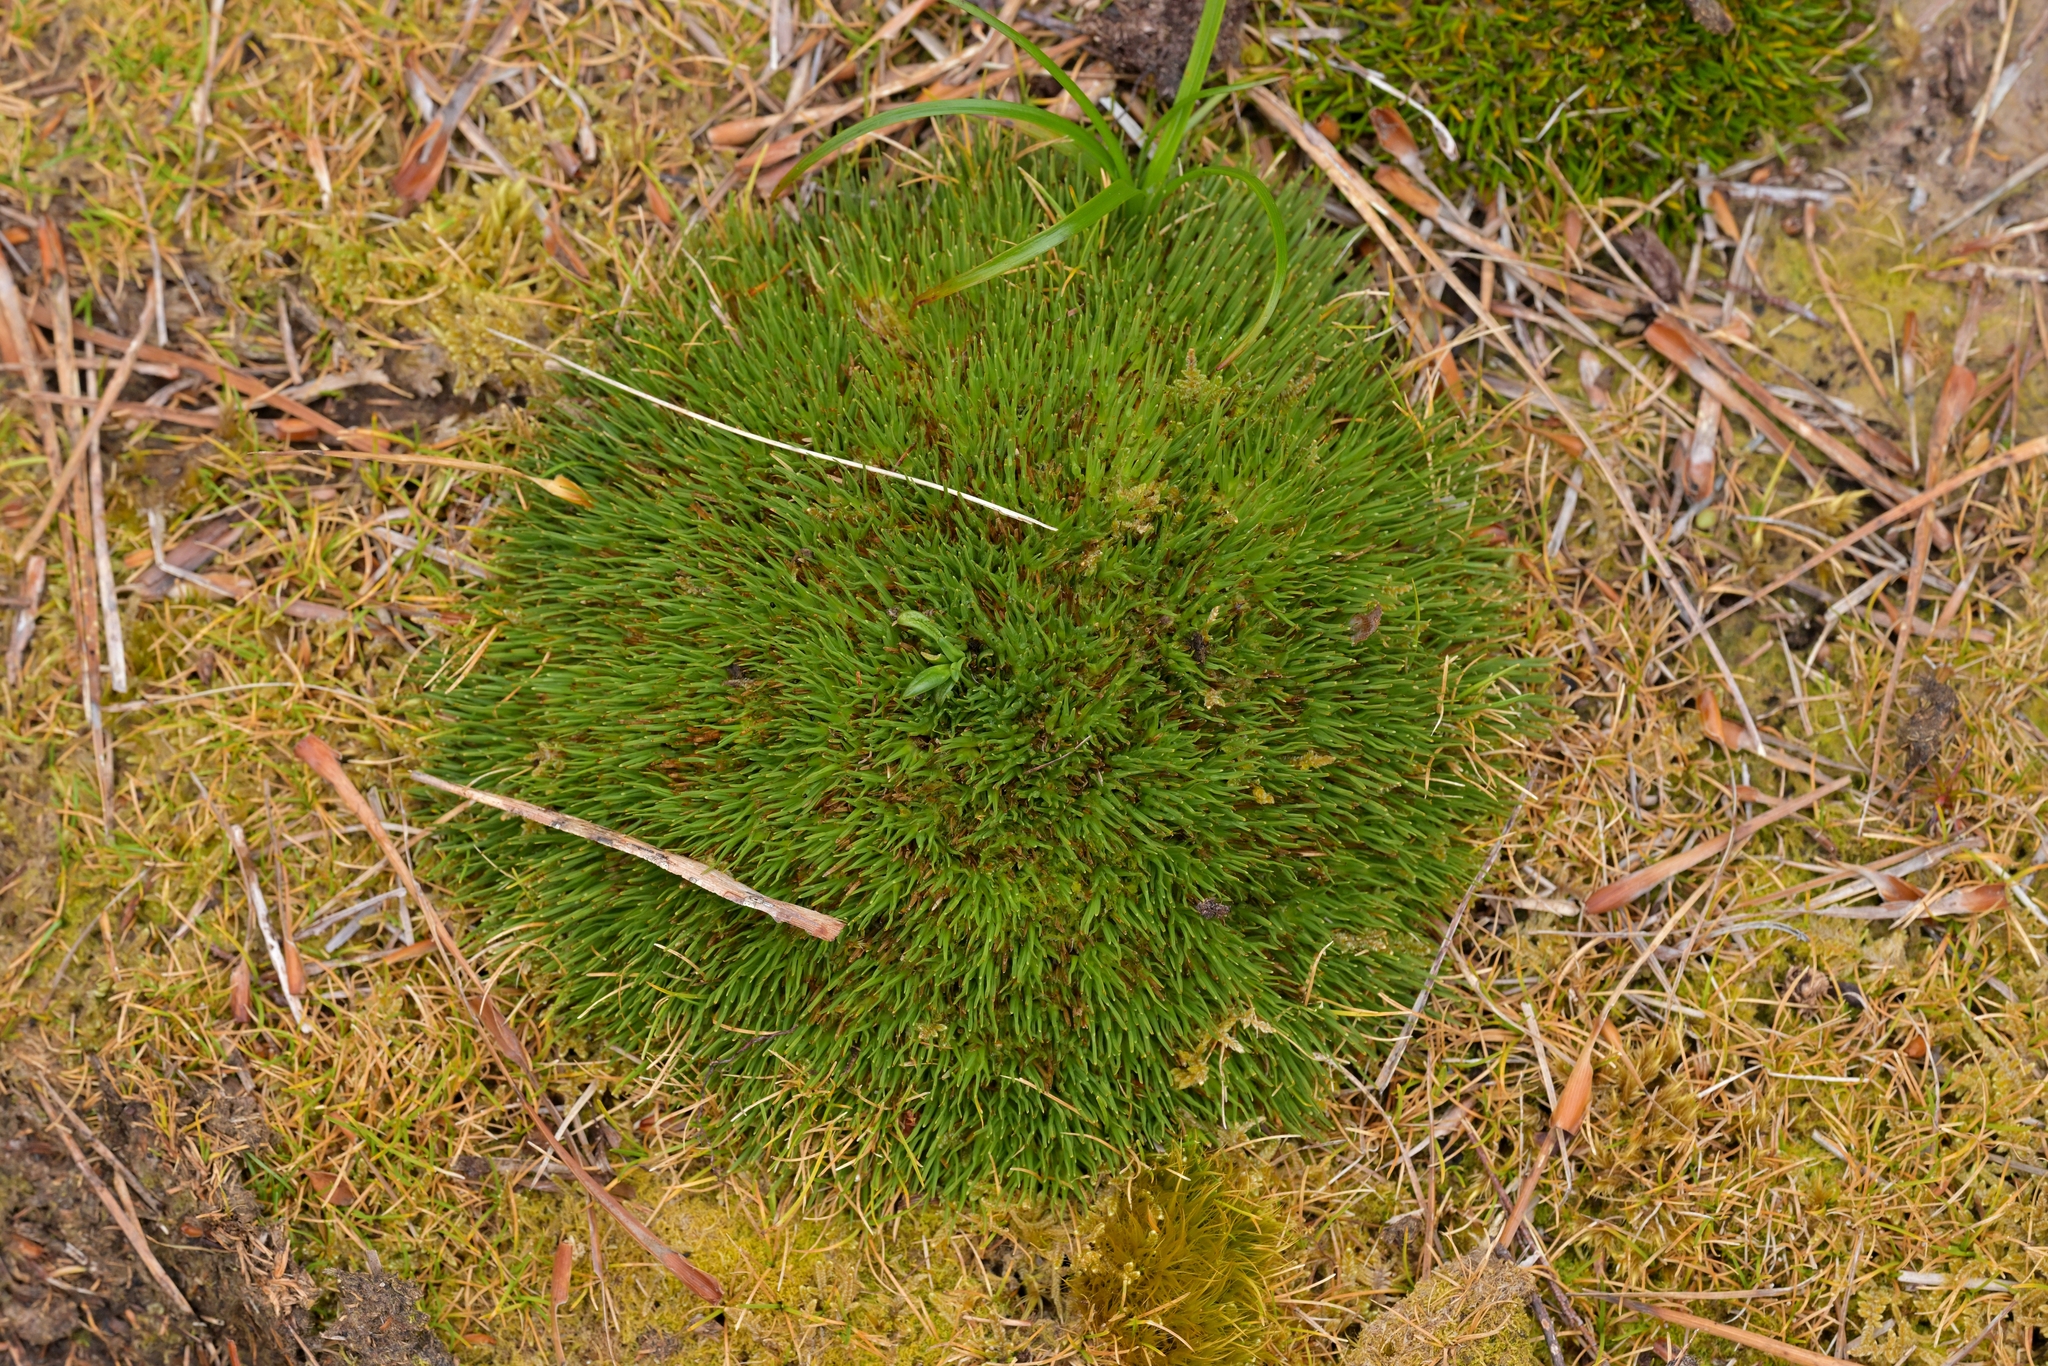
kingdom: Plantae
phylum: Tracheophyta
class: Liliopsida
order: Poales
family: Cyperaceae
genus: Oreobolus
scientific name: Oreobolus pectinatus
